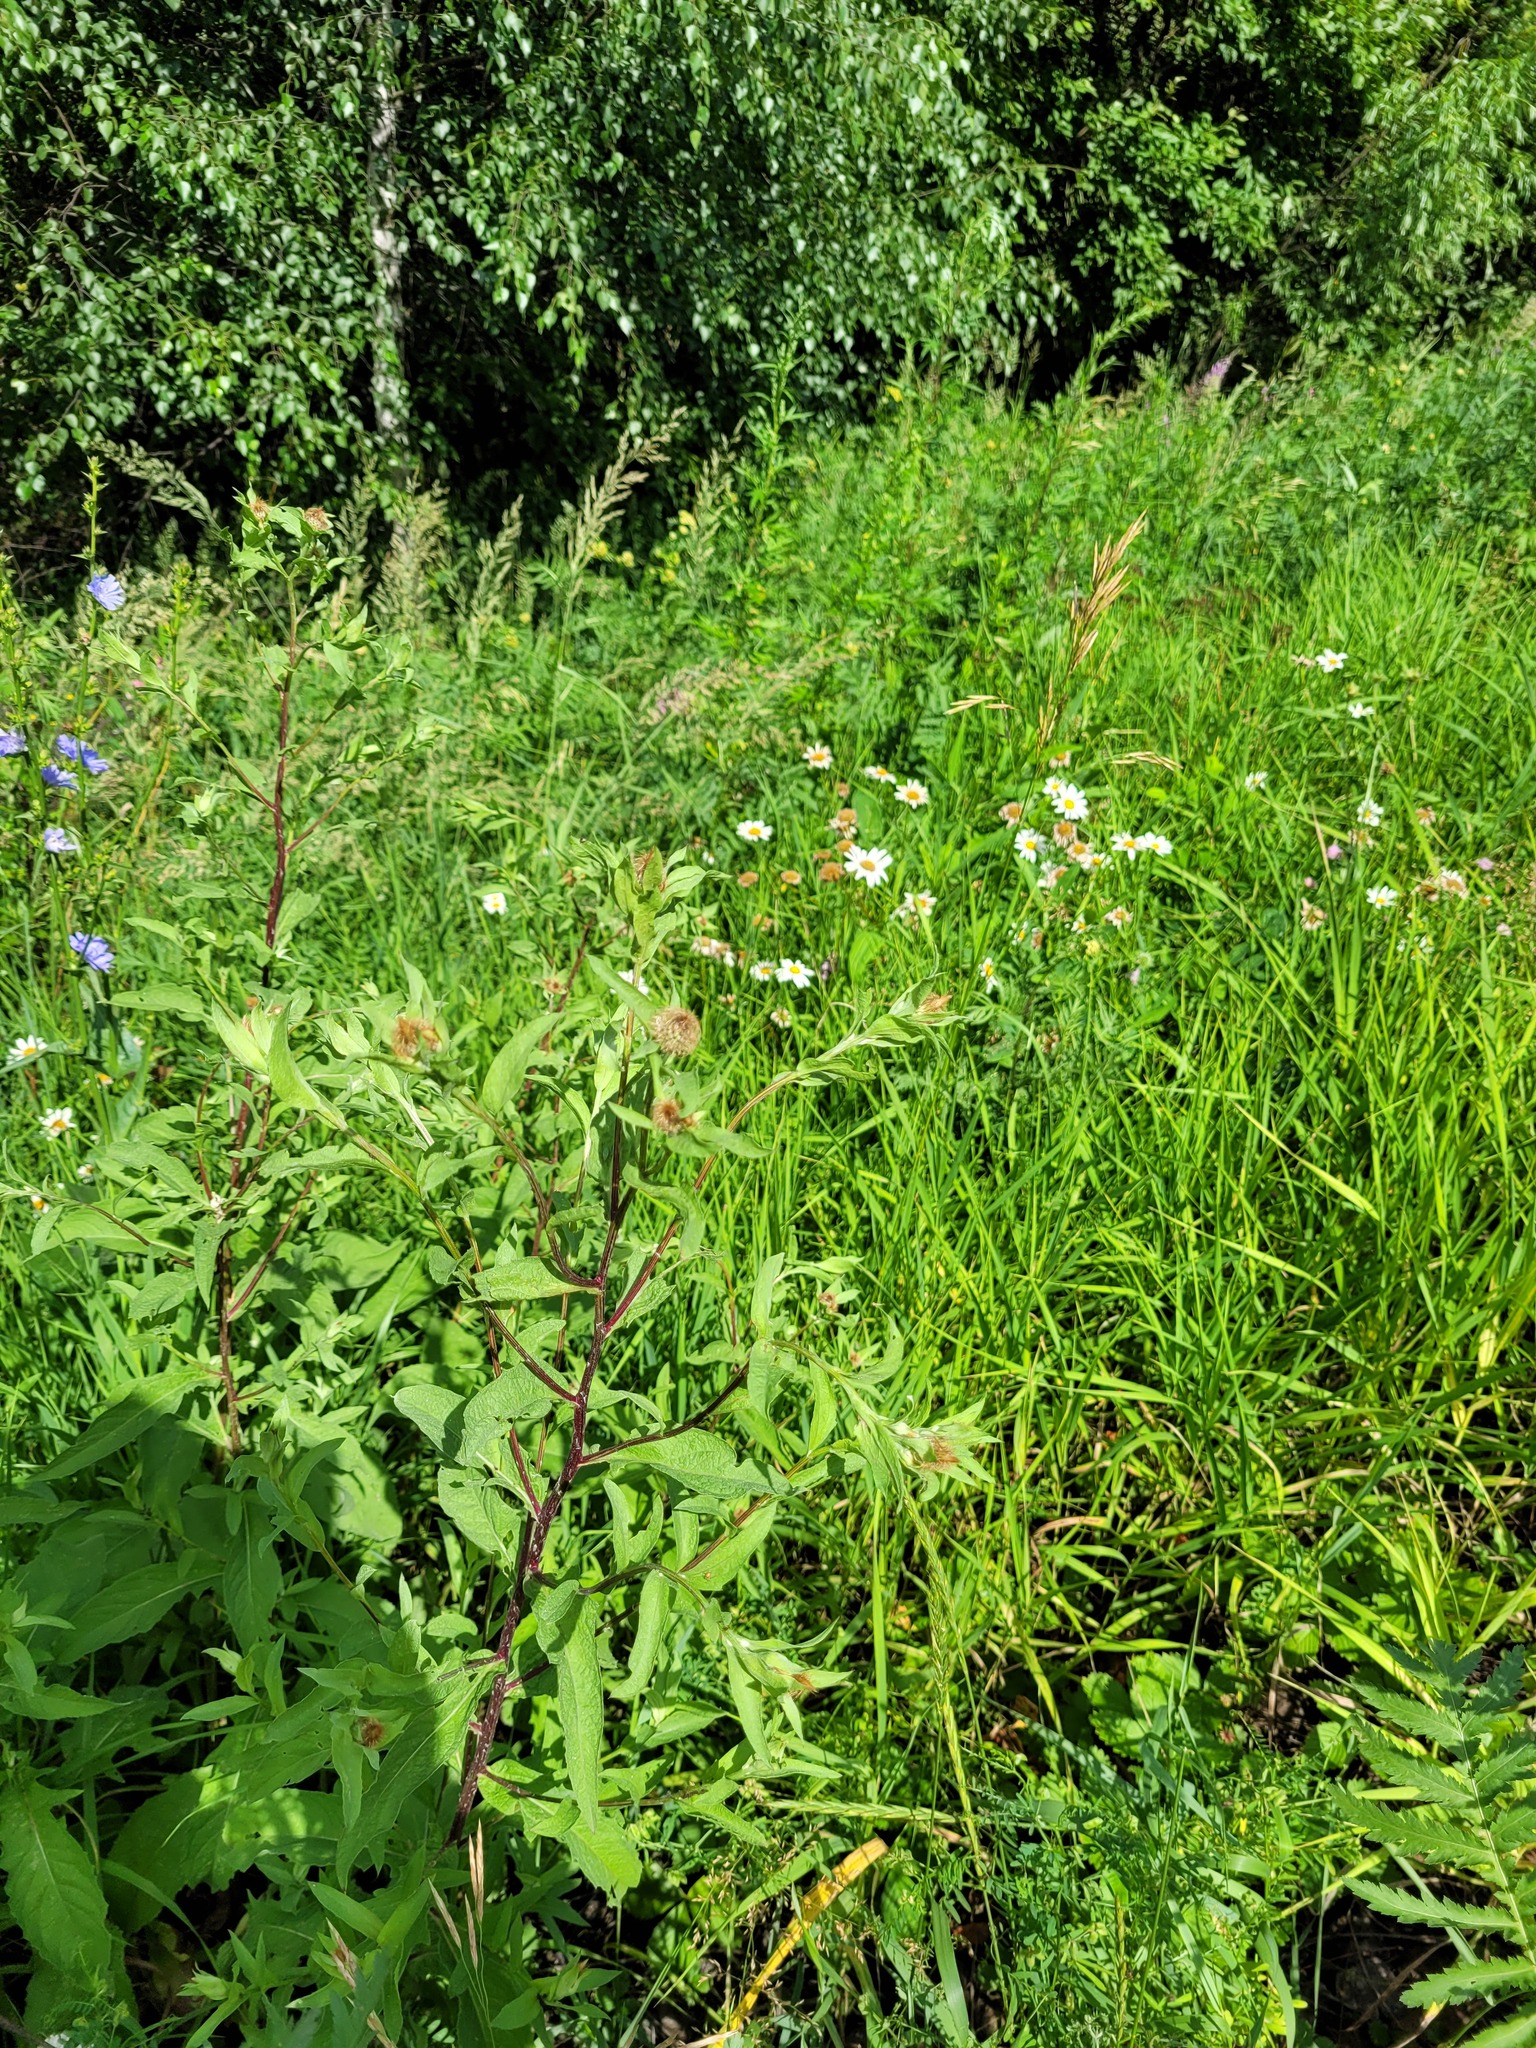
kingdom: Plantae
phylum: Tracheophyta
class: Magnoliopsida
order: Asterales
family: Asteraceae
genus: Centaurea
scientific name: Centaurea pseudophrygia
